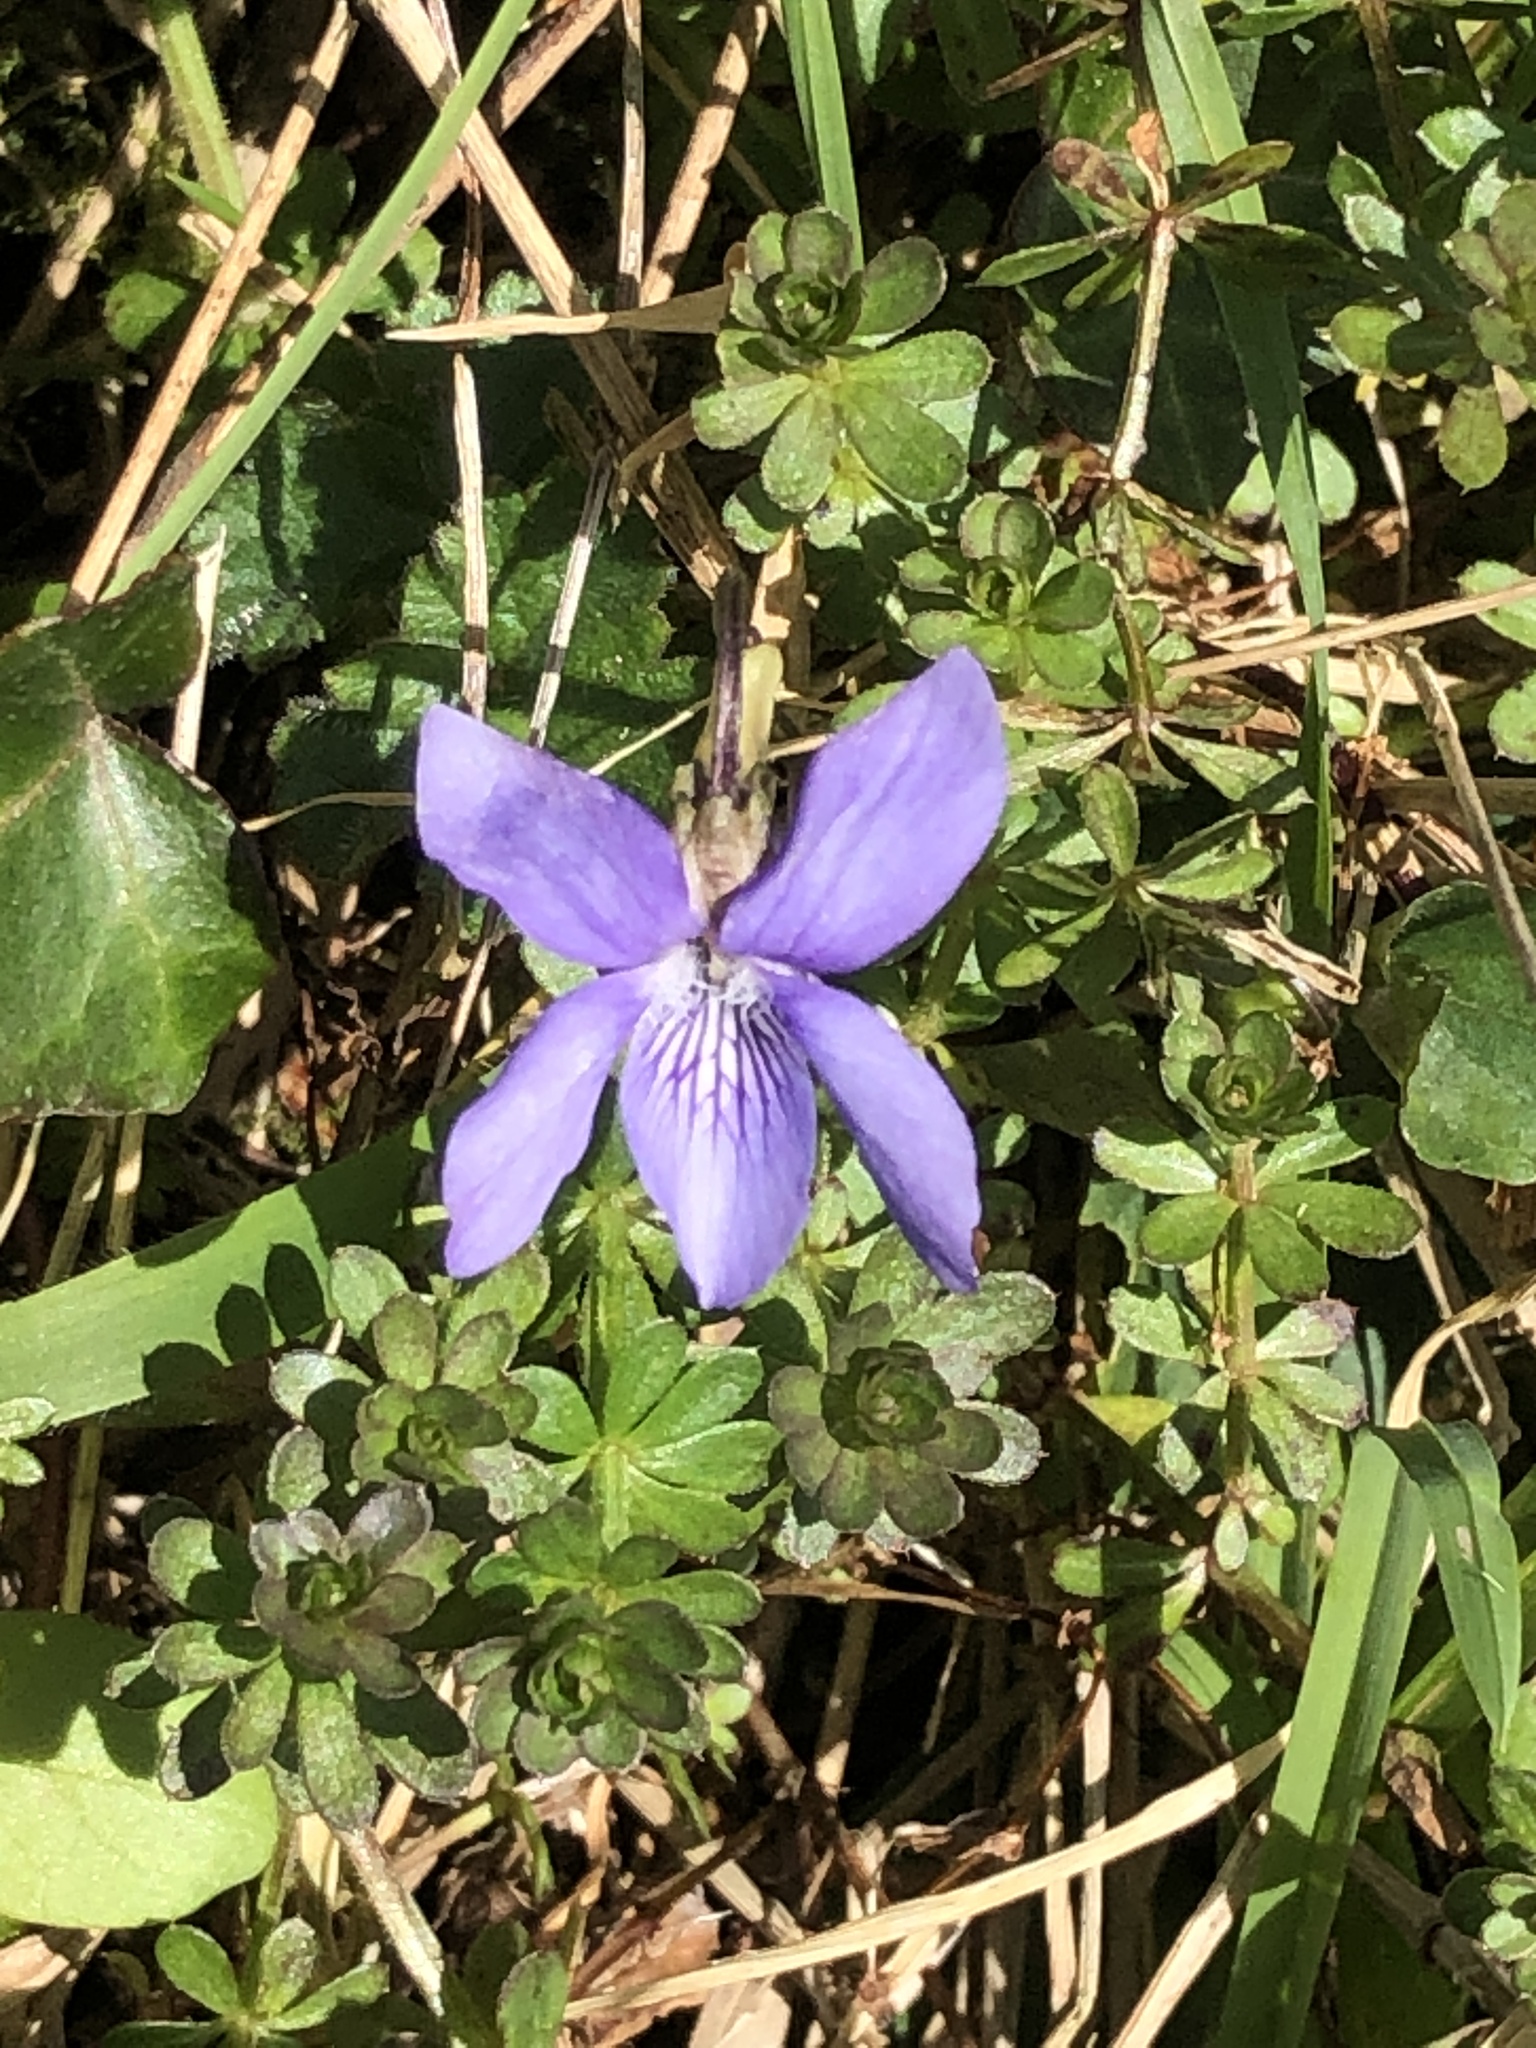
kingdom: Plantae
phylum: Tracheophyta
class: Magnoliopsida
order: Malpighiales
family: Violaceae
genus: Viola
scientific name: Viola riviniana
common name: Common dog-violet
